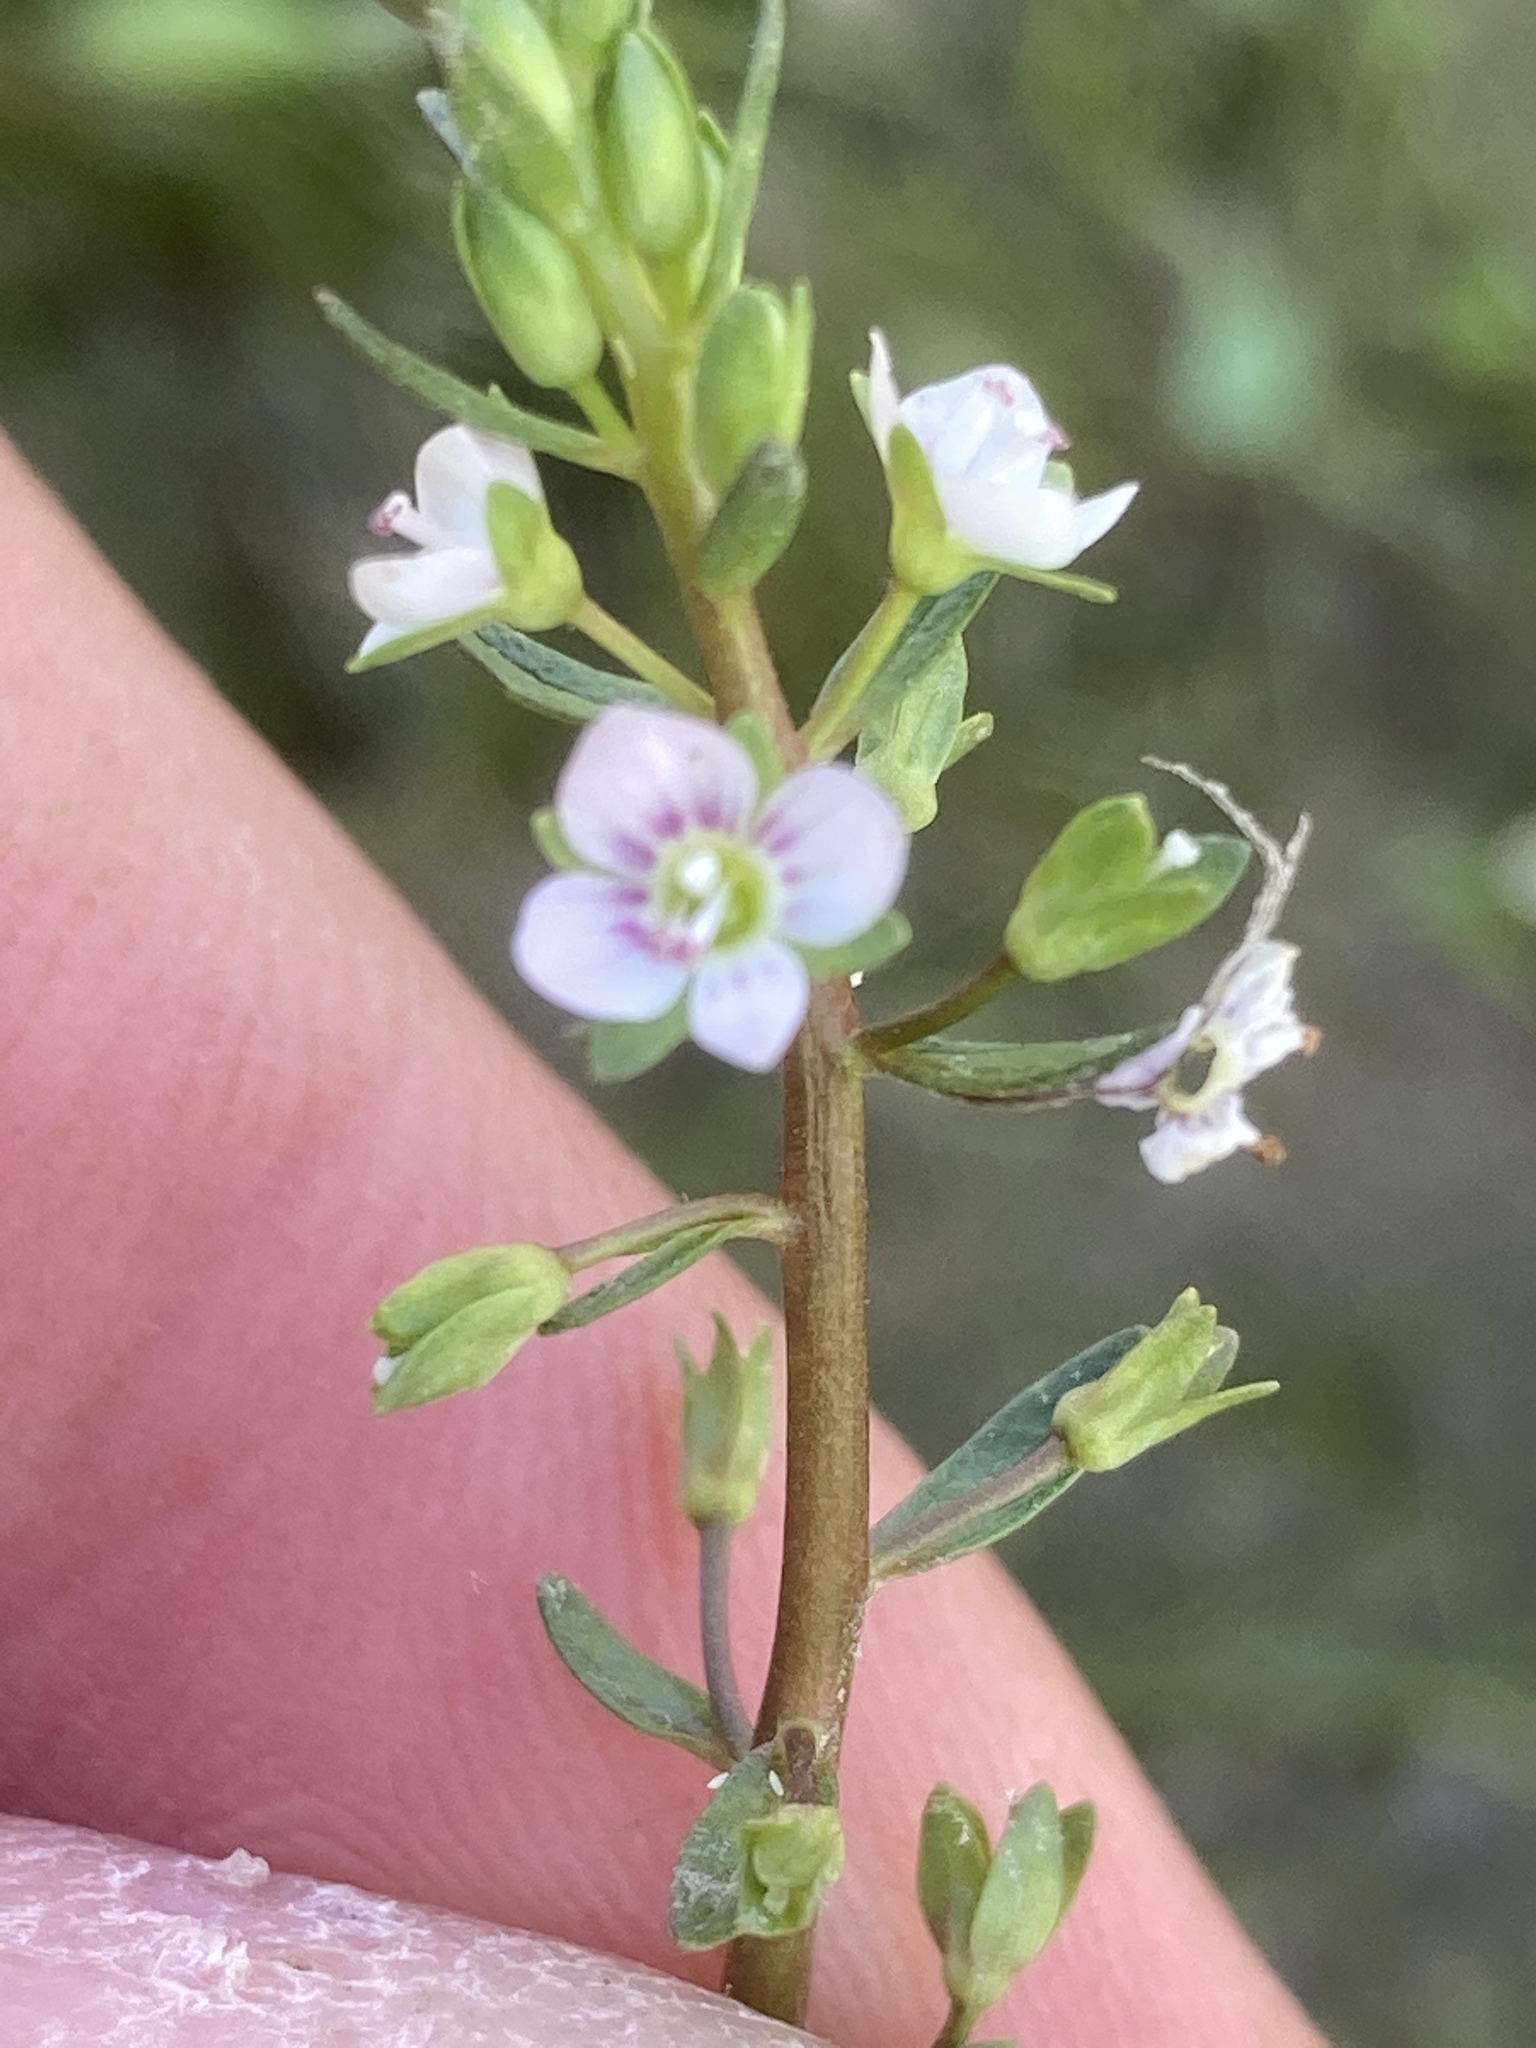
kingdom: Plantae
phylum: Tracheophyta
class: Magnoliopsida
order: Lamiales
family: Plantaginaceae
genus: Veronica
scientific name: Veronica catenata
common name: Pink water-speedwell
